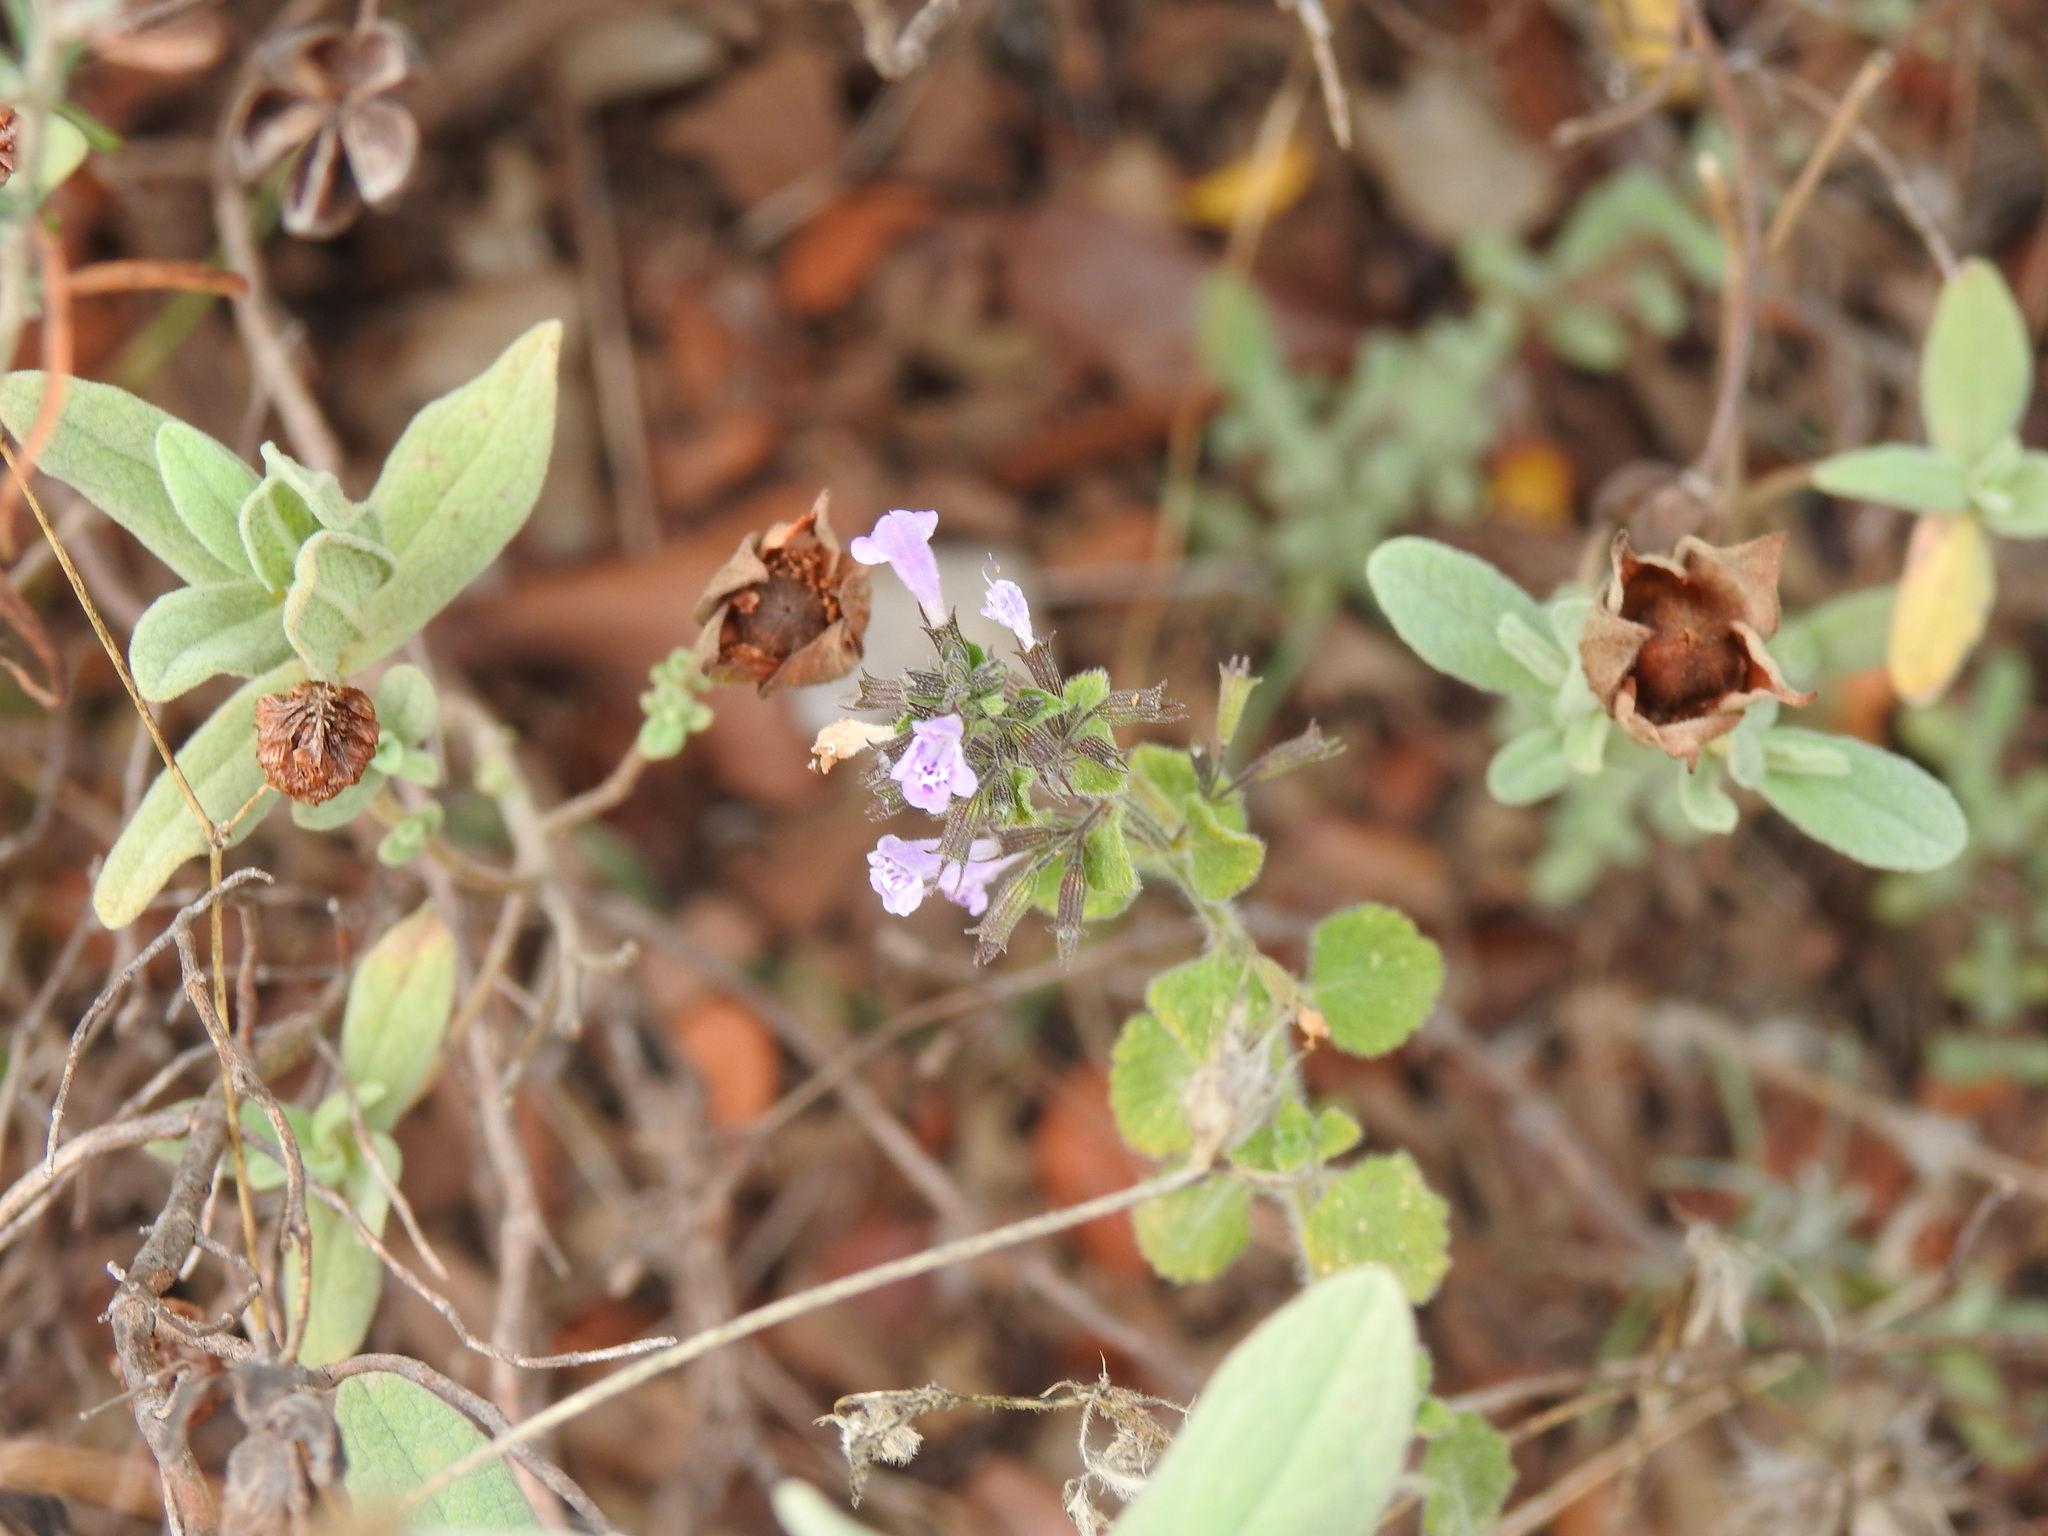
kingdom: Plantae
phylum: Tracheophyta
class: Magnoliopsida
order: Lamiales
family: Lamiaceae
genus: Clinopodium
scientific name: Clinopodium nepeta
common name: Lesser calamint
